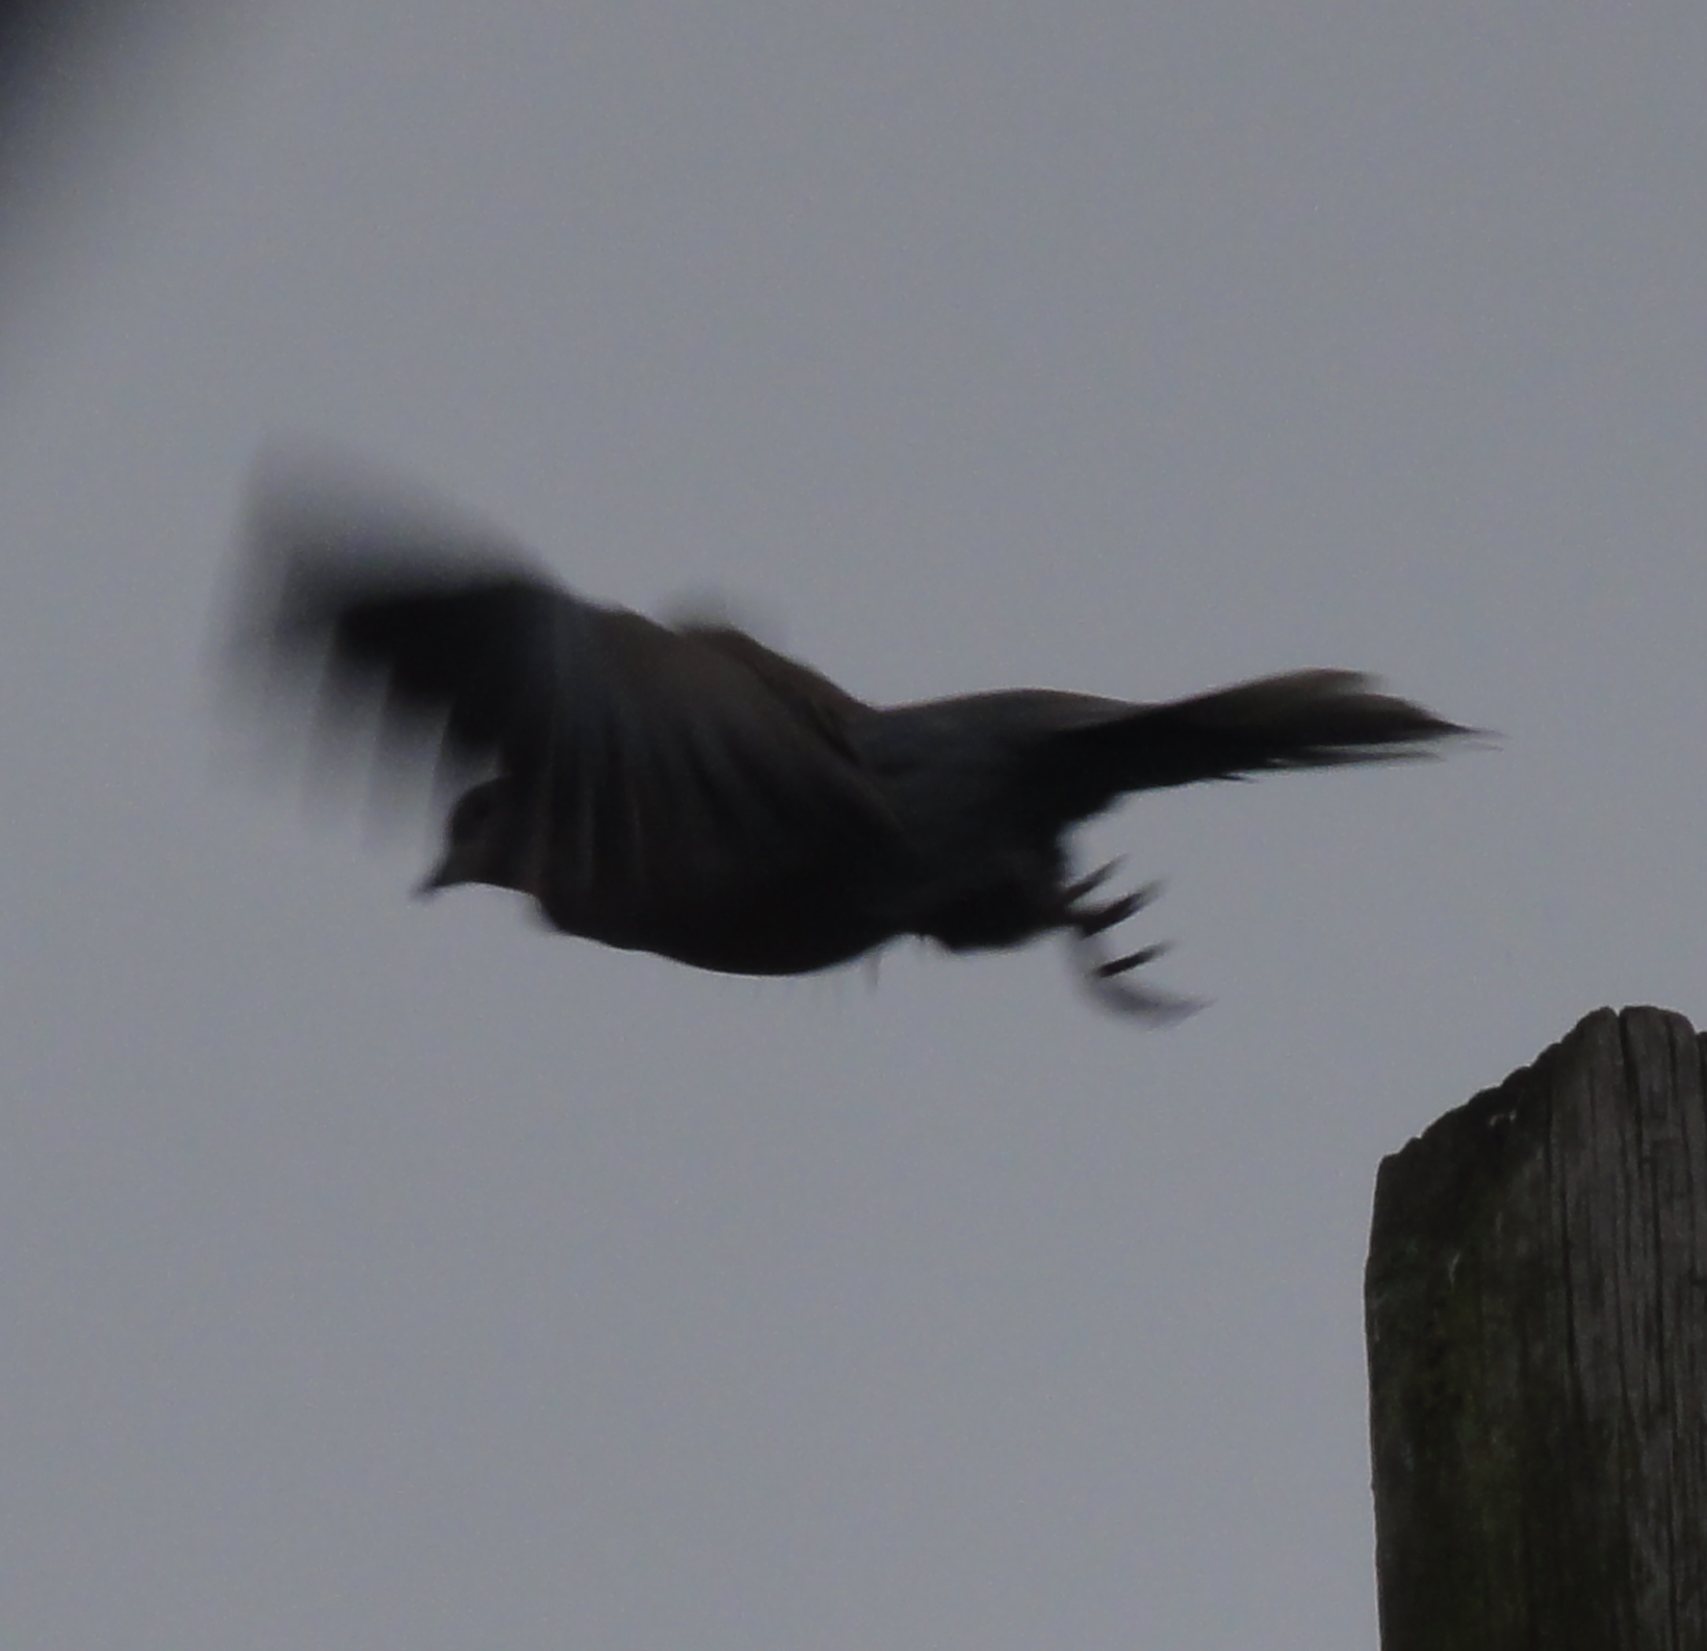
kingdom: Animalia
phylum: Chordata
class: Aves
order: Columbiformes
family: Columbidae
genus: Streptopelia
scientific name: Streptopelia decaocto
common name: Eurasian collared dove
